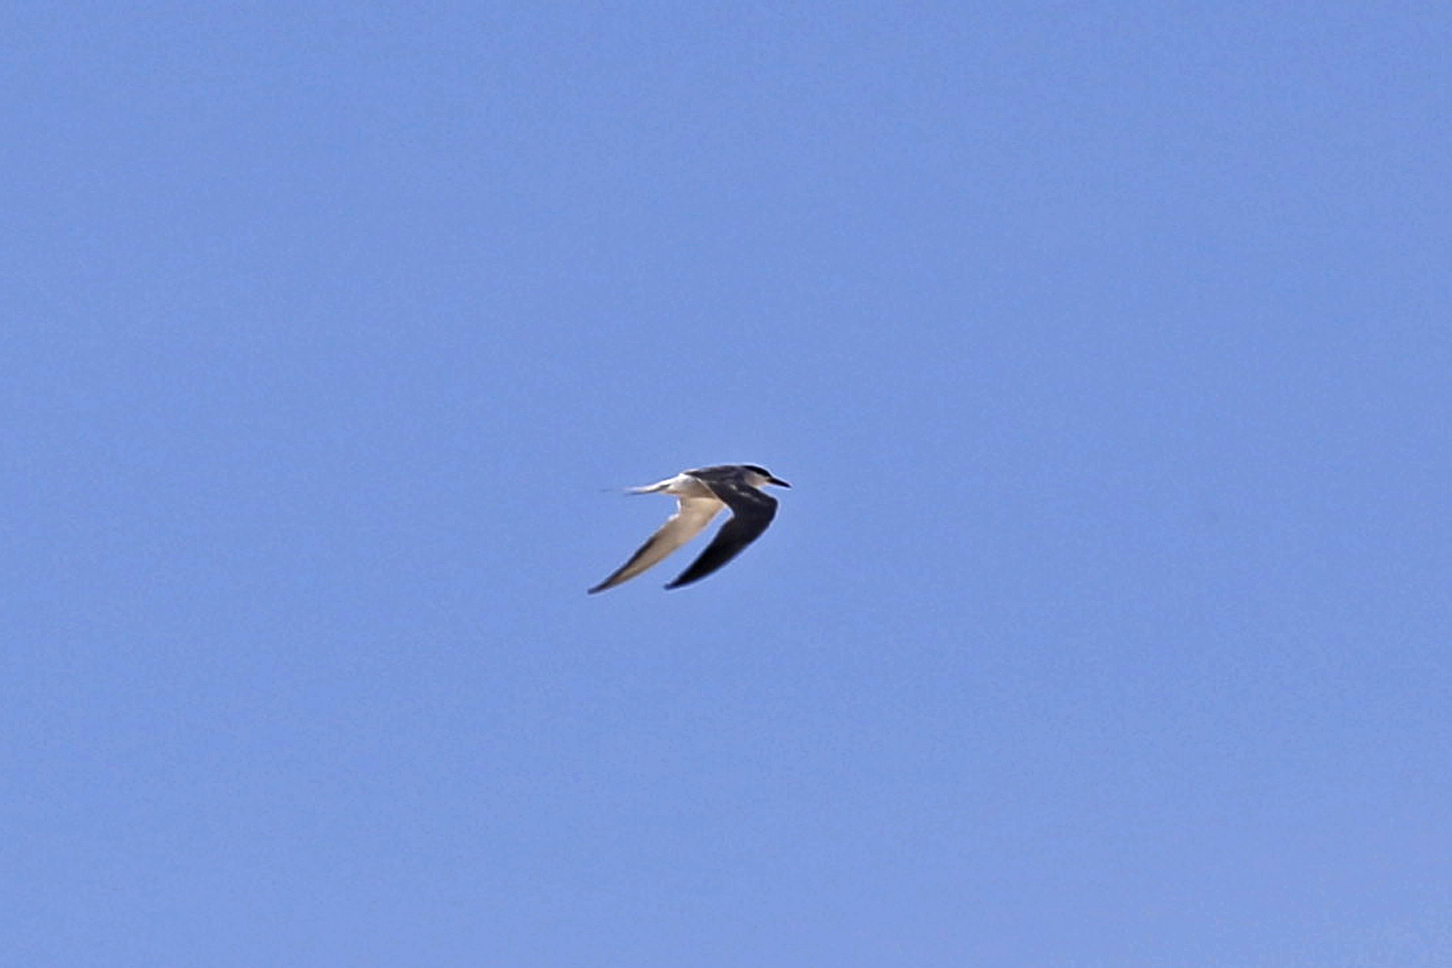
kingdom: Animalia
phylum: Chordata
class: Aves
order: Charadriiformes
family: Laridae
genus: Sterna
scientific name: Sterna hirundo
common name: Common tern
